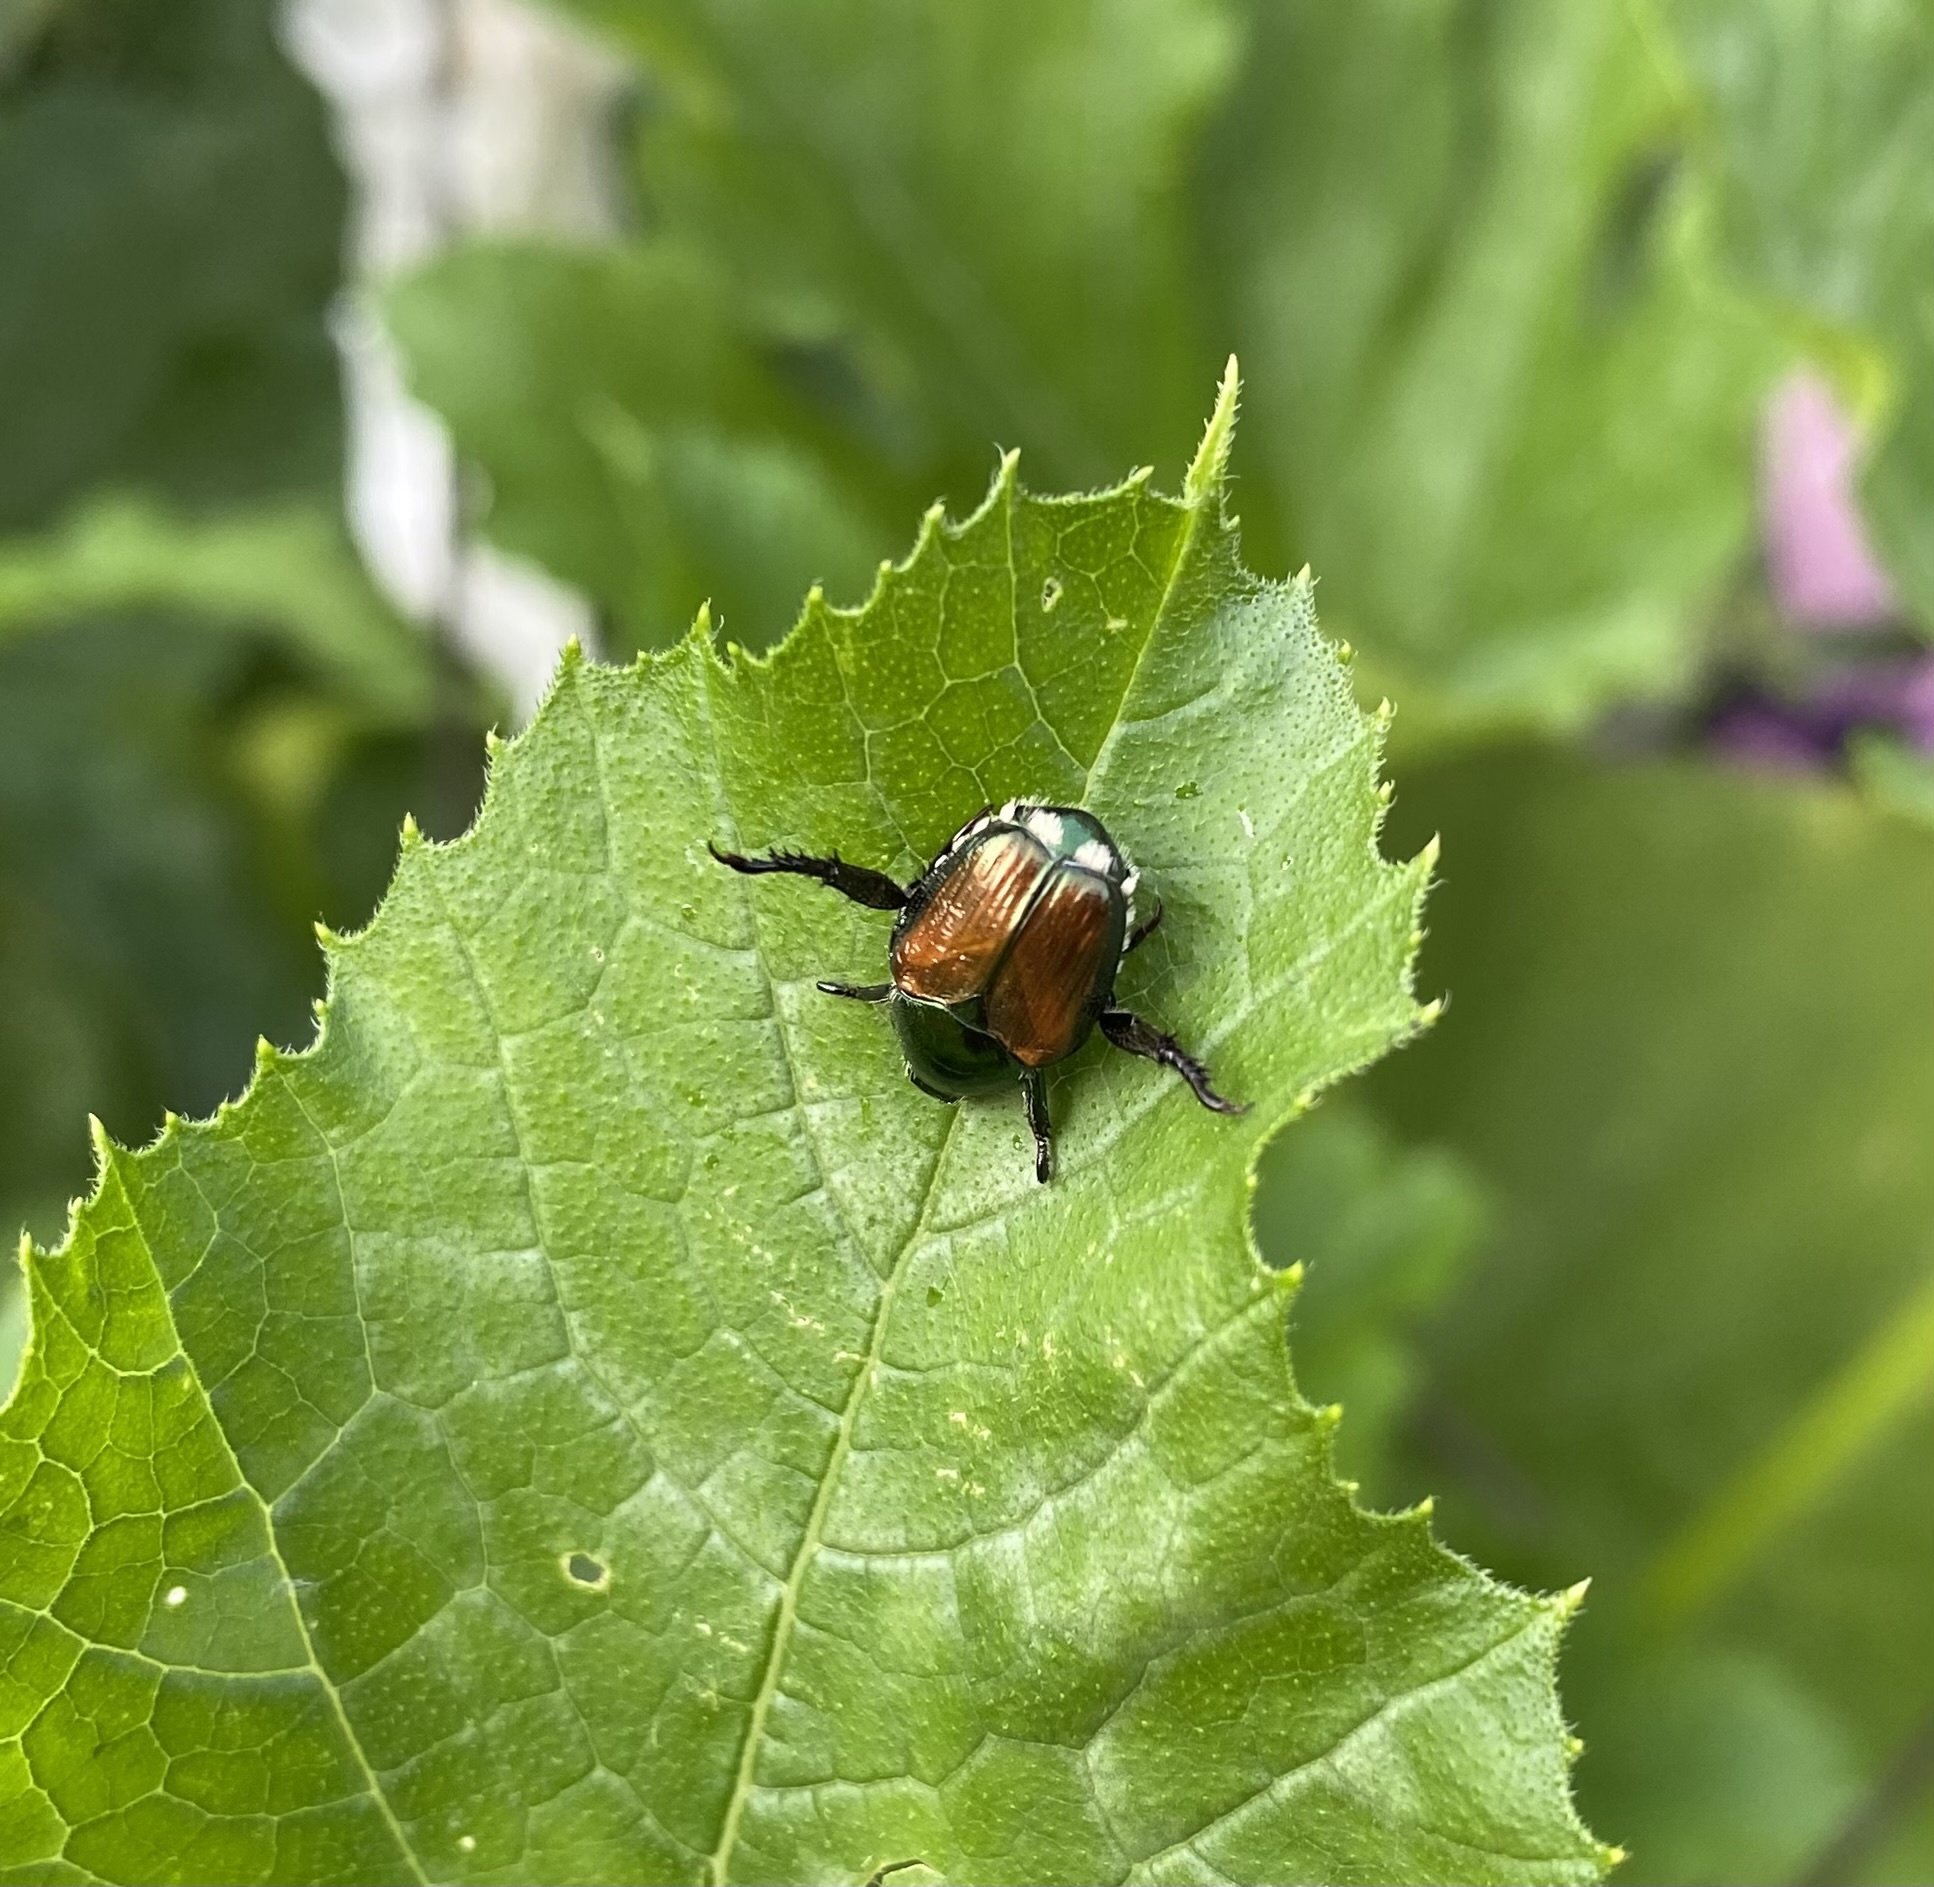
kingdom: Animalia
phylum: Arthropoda
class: Insecta
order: Coleoptera
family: Scarabaeidae
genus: Popillia
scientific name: Popillia japonica
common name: Japanese beetle
